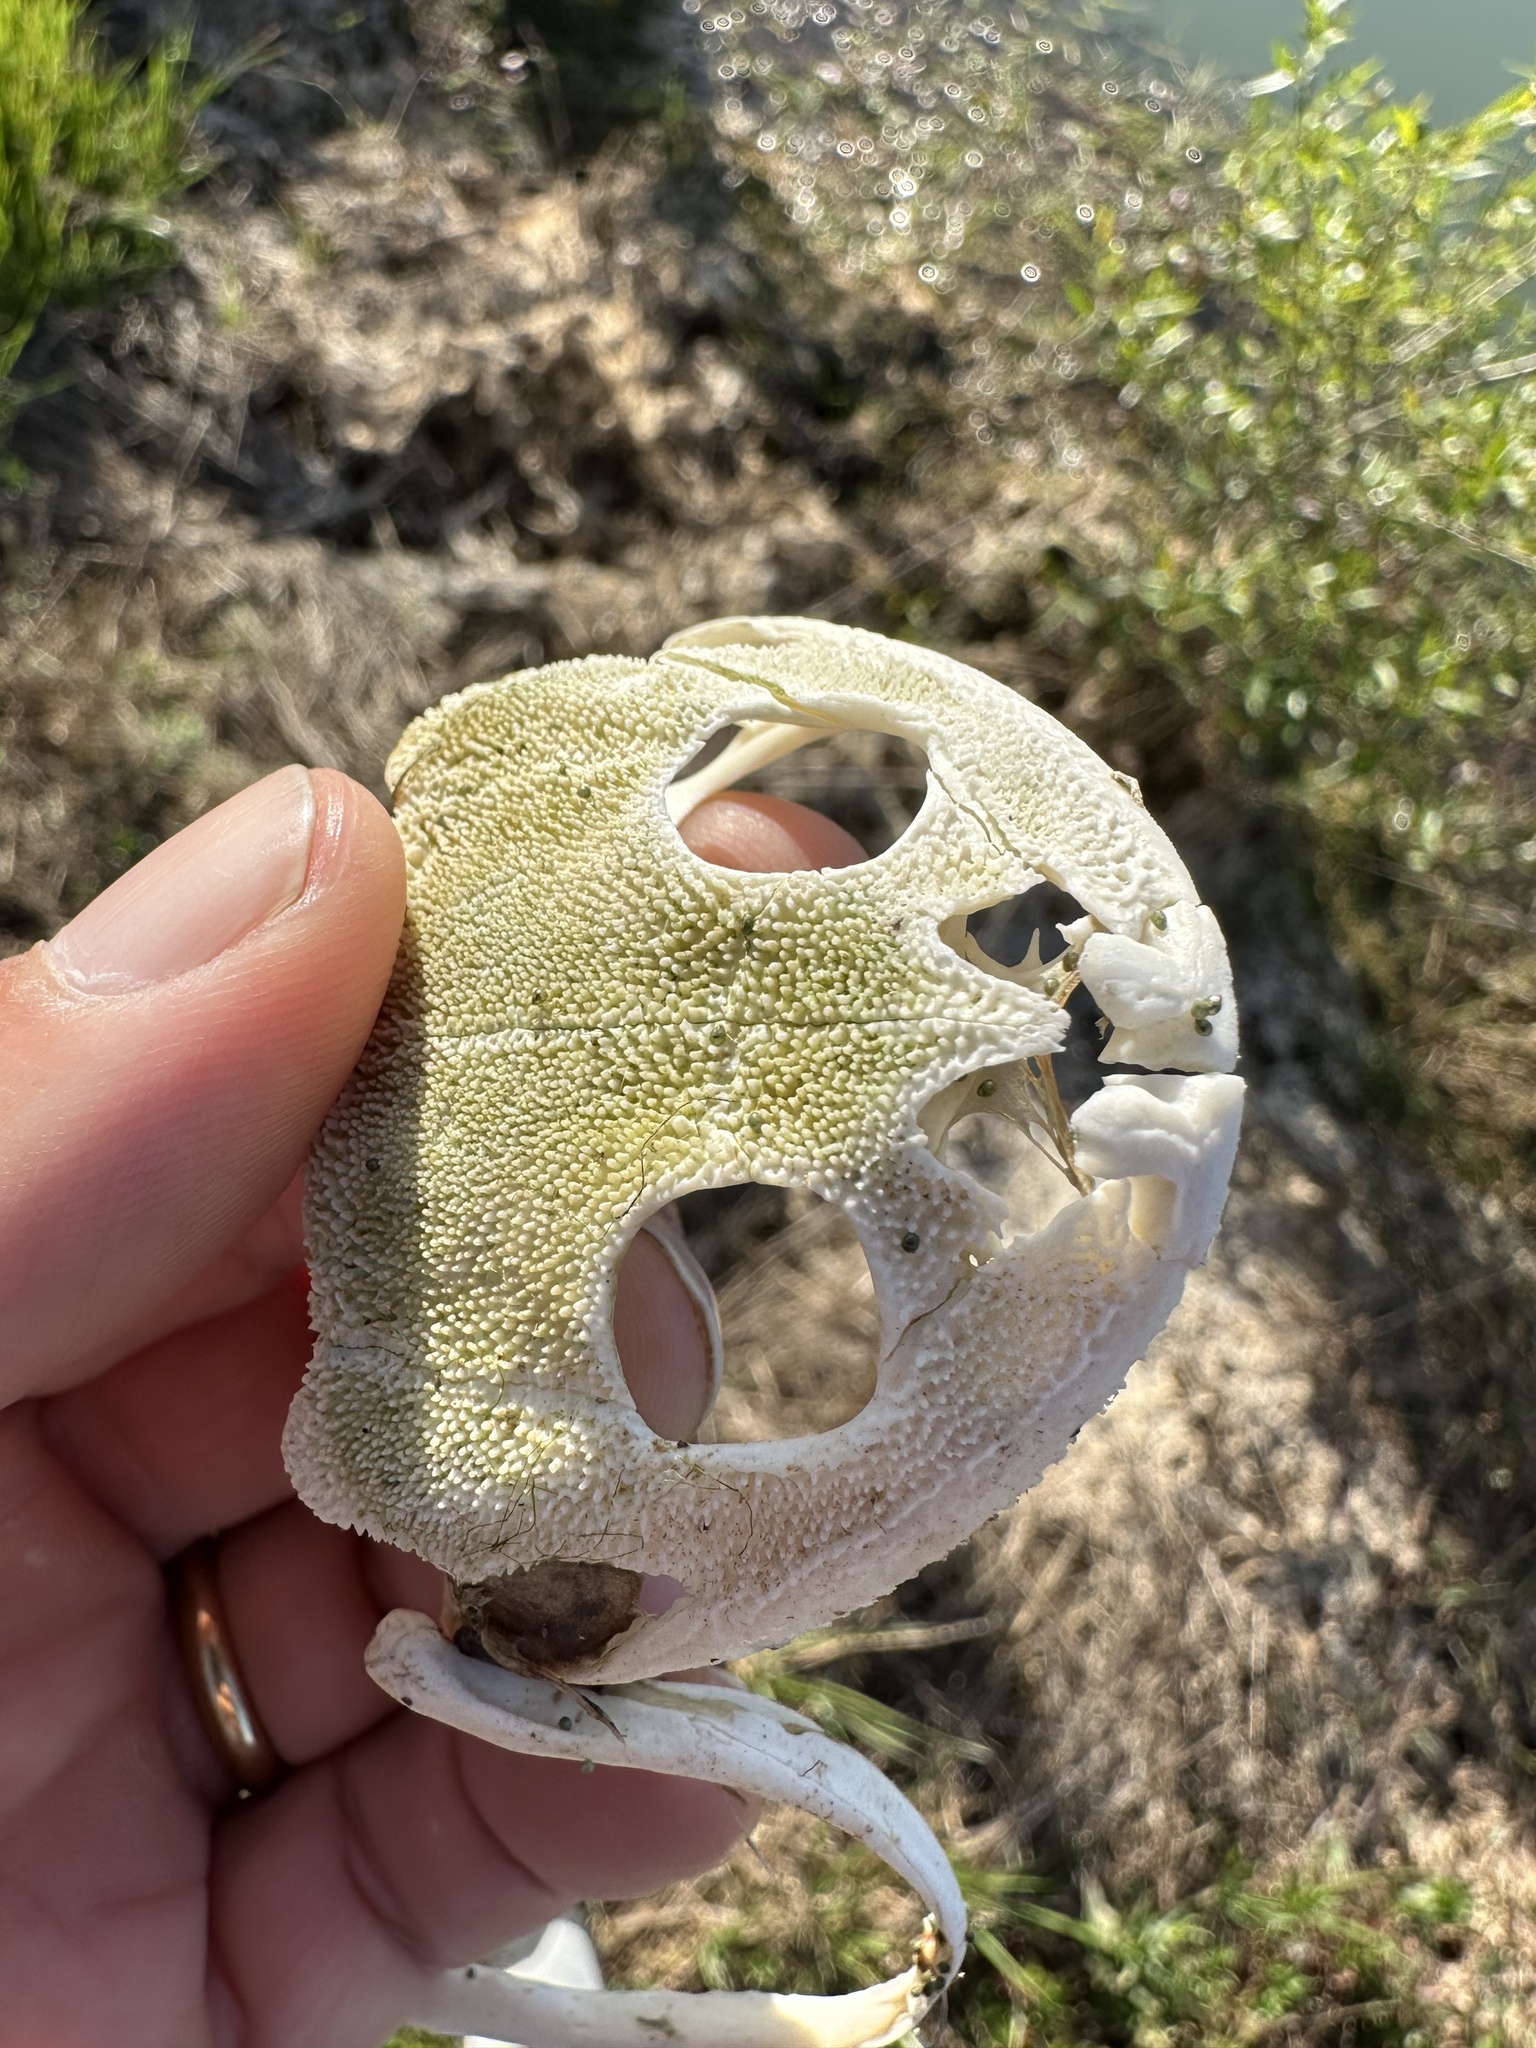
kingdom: Animalia
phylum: Chordata
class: Amphibia
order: Anura
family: Calyptocephalellidae
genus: Calyptocephalella
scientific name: Calyptocephalella gayi
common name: Chilean toad
